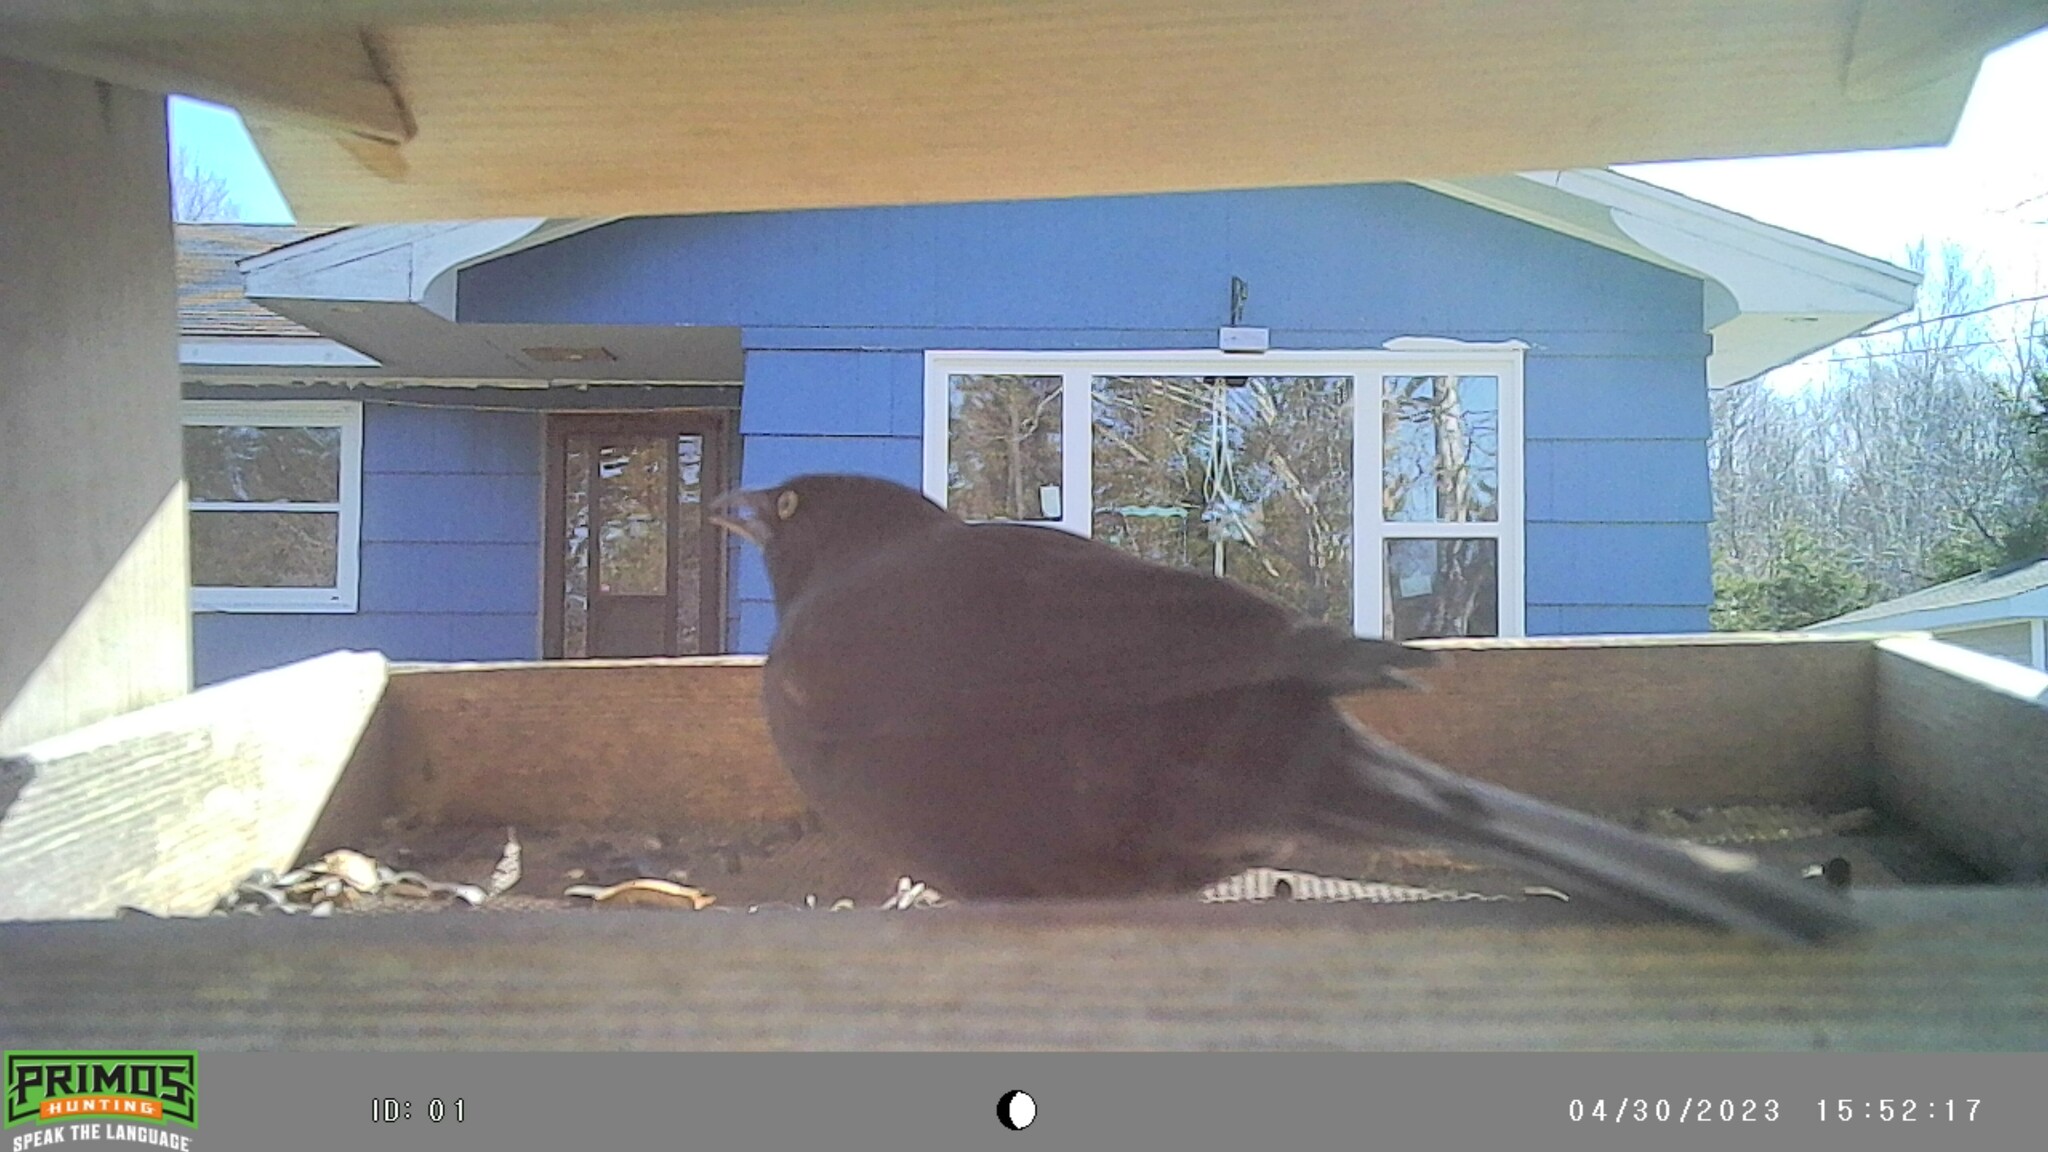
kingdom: Animalia
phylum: Chordata
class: Aves
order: Passeriformes
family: Icteridae
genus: Quiscalus
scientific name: Quiscalus quiscula
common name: Common grackle
